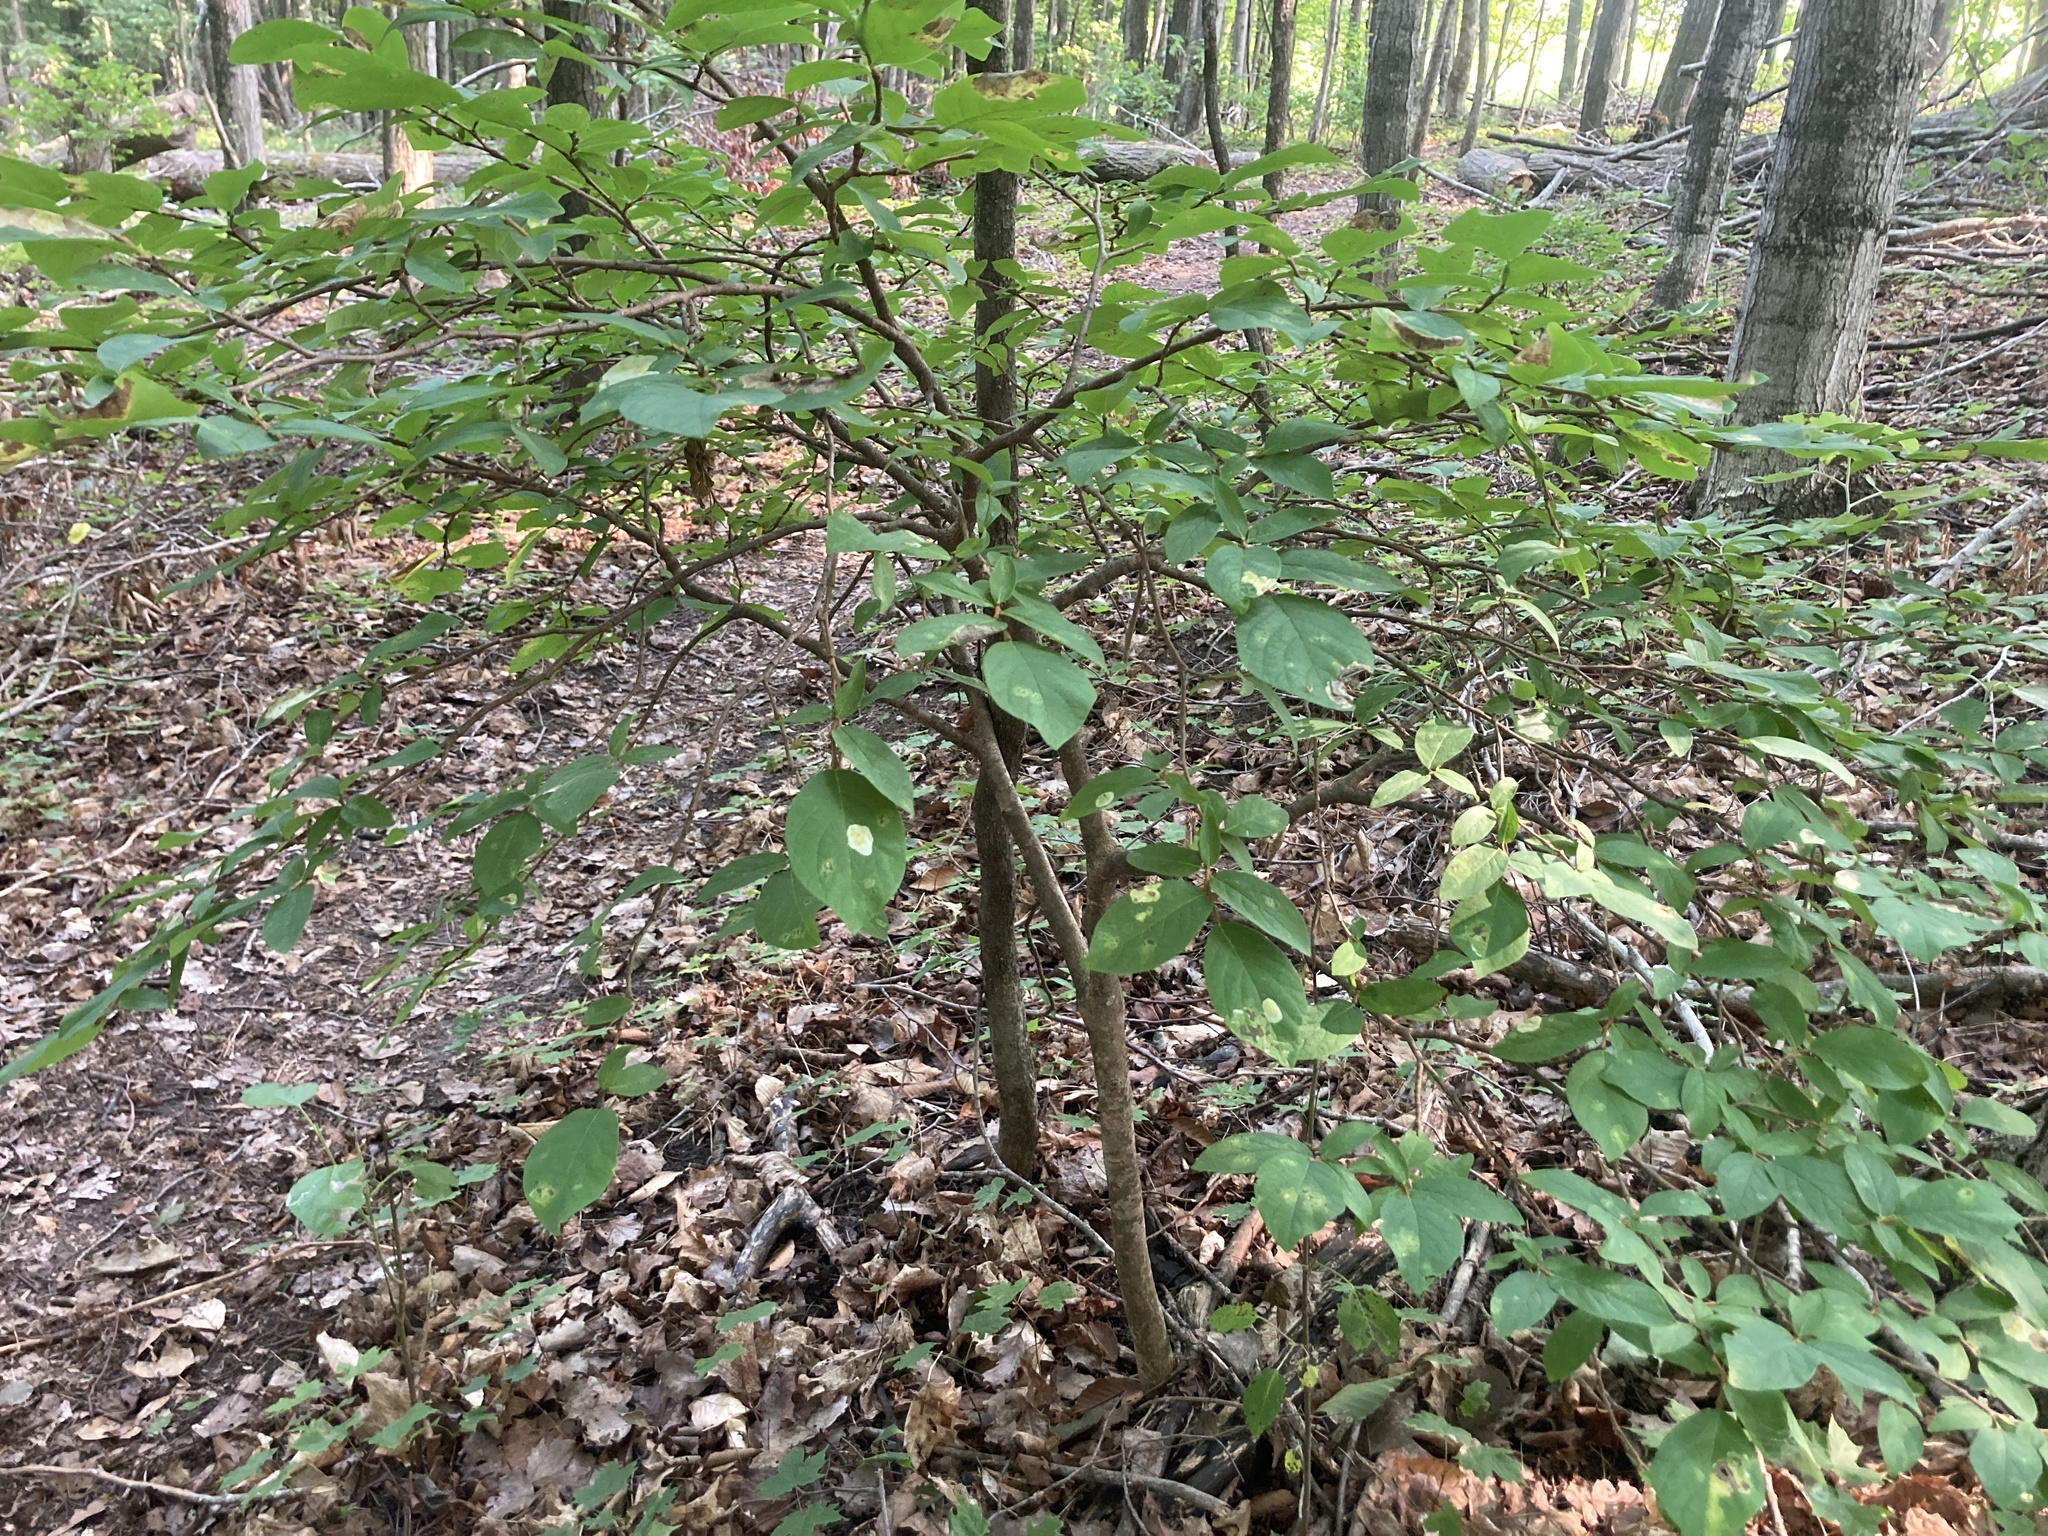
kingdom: Plantae
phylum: Tracheophyta
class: Magnoliopsida
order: Malvales
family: Thymelaeaceae
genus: Dirca
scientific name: Dirca palustris
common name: Leatherwood
